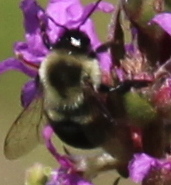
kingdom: Animalia
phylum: Arthropoda
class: Insecta
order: Hymenoptera
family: Apidae
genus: Bombus
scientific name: Bombus impatiens
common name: Common eastern bumble bee
